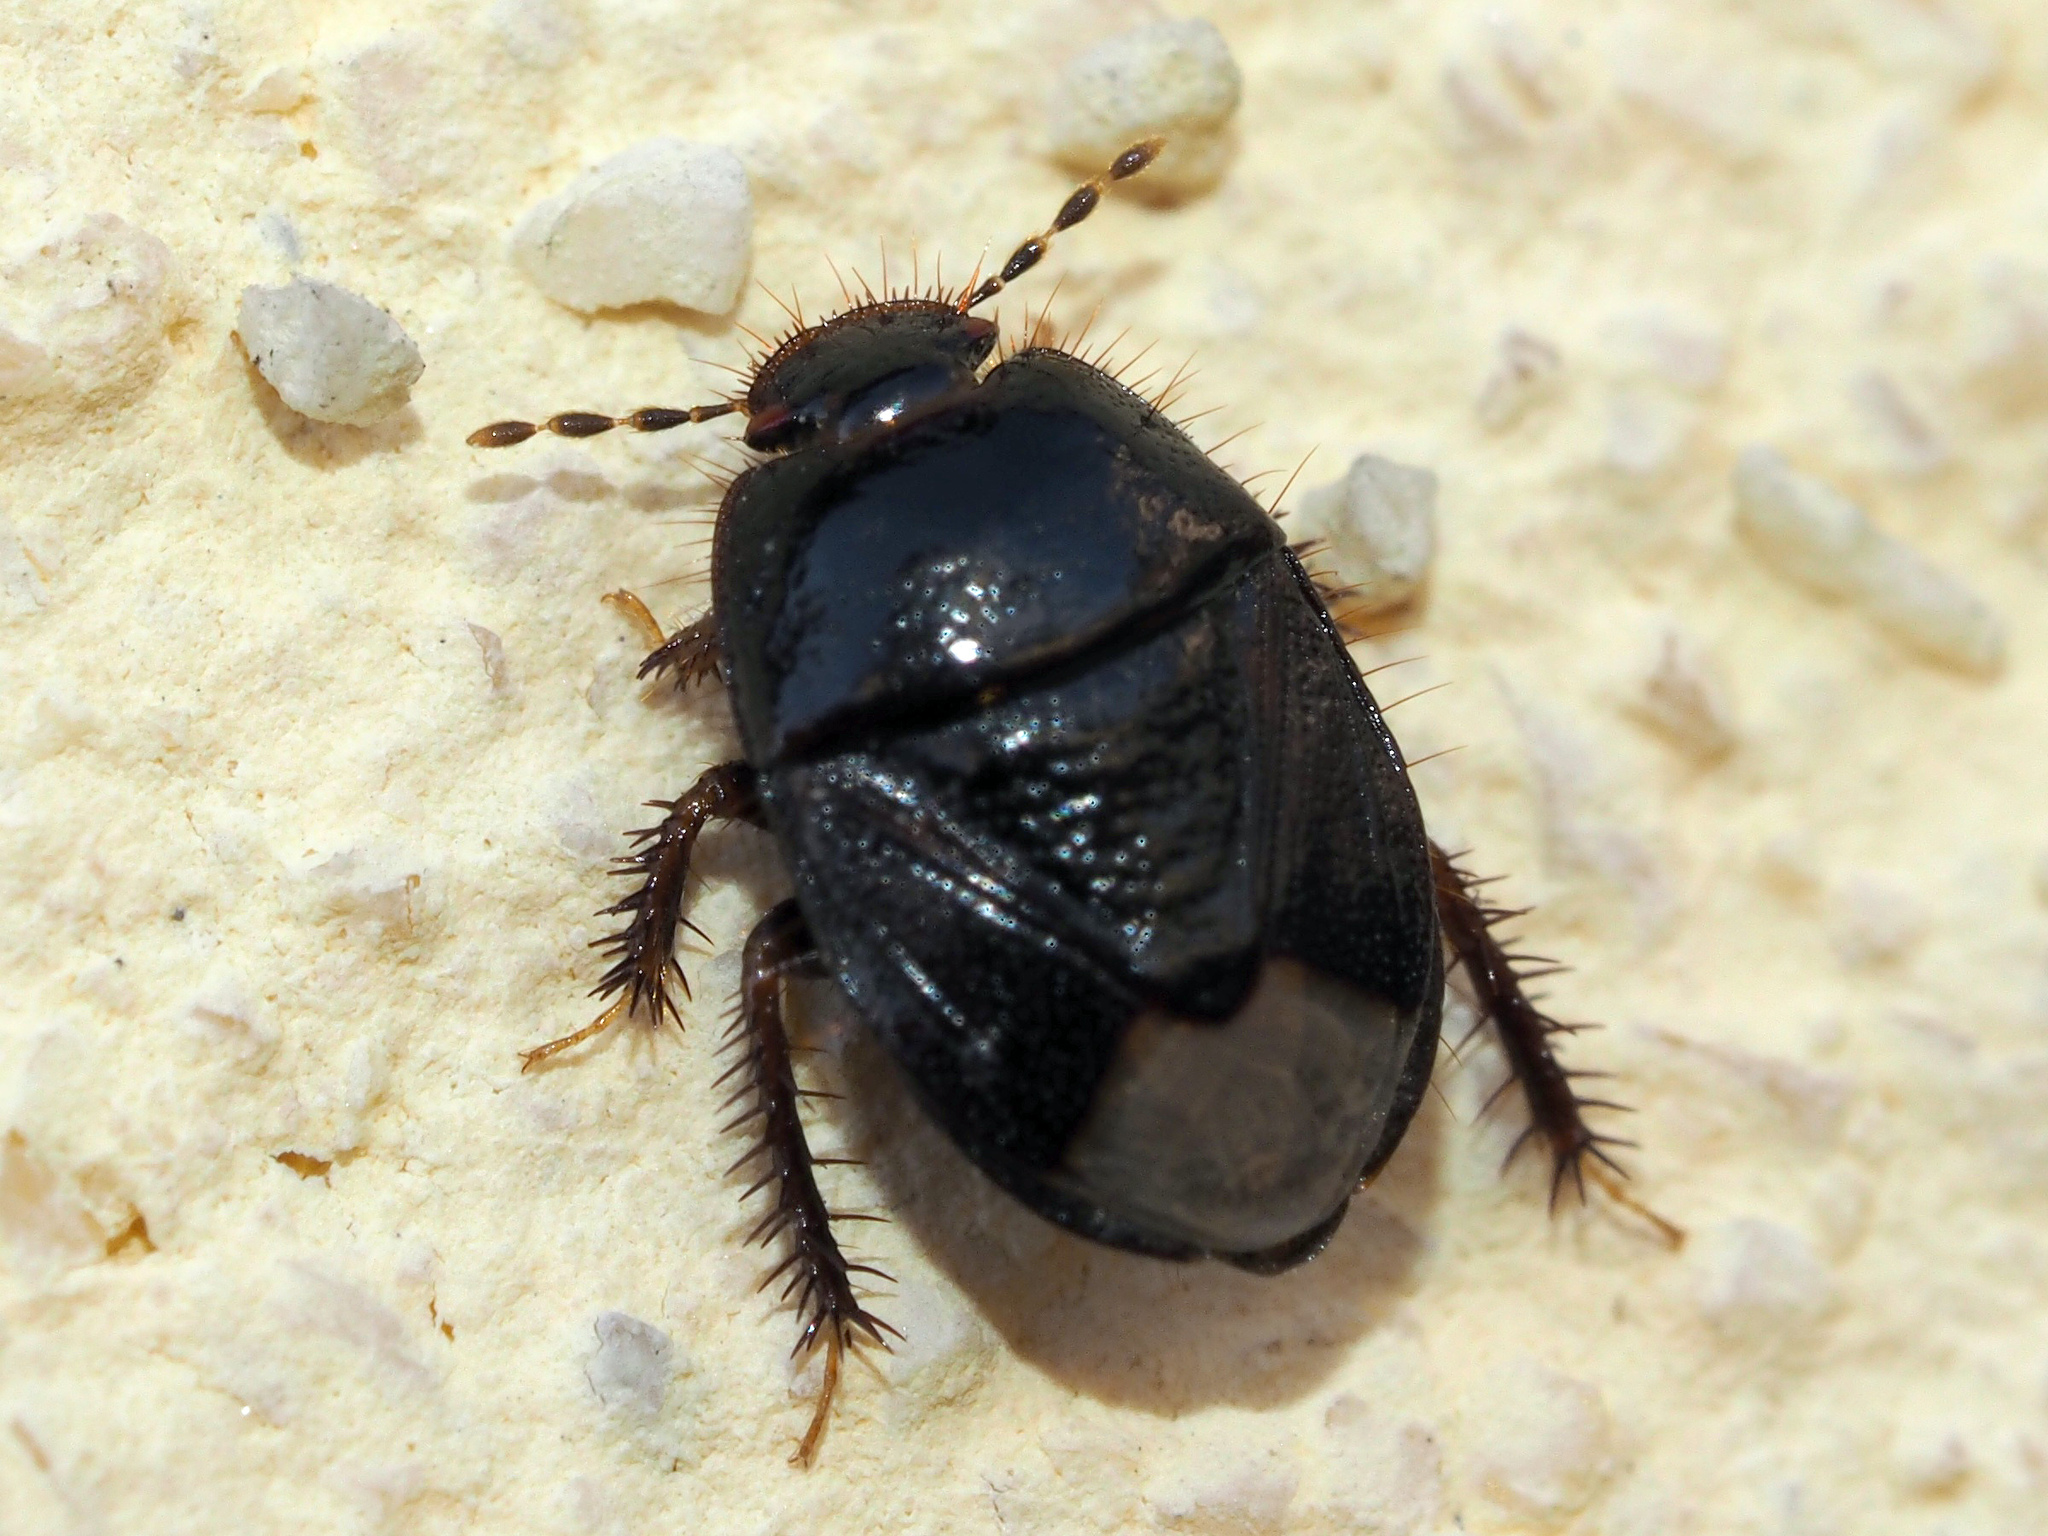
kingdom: Animalia
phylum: Arthropoda
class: Insecta
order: Hemiptera
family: Cydnidae
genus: Microporus
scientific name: Microporus nigrita
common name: Burrower bug
